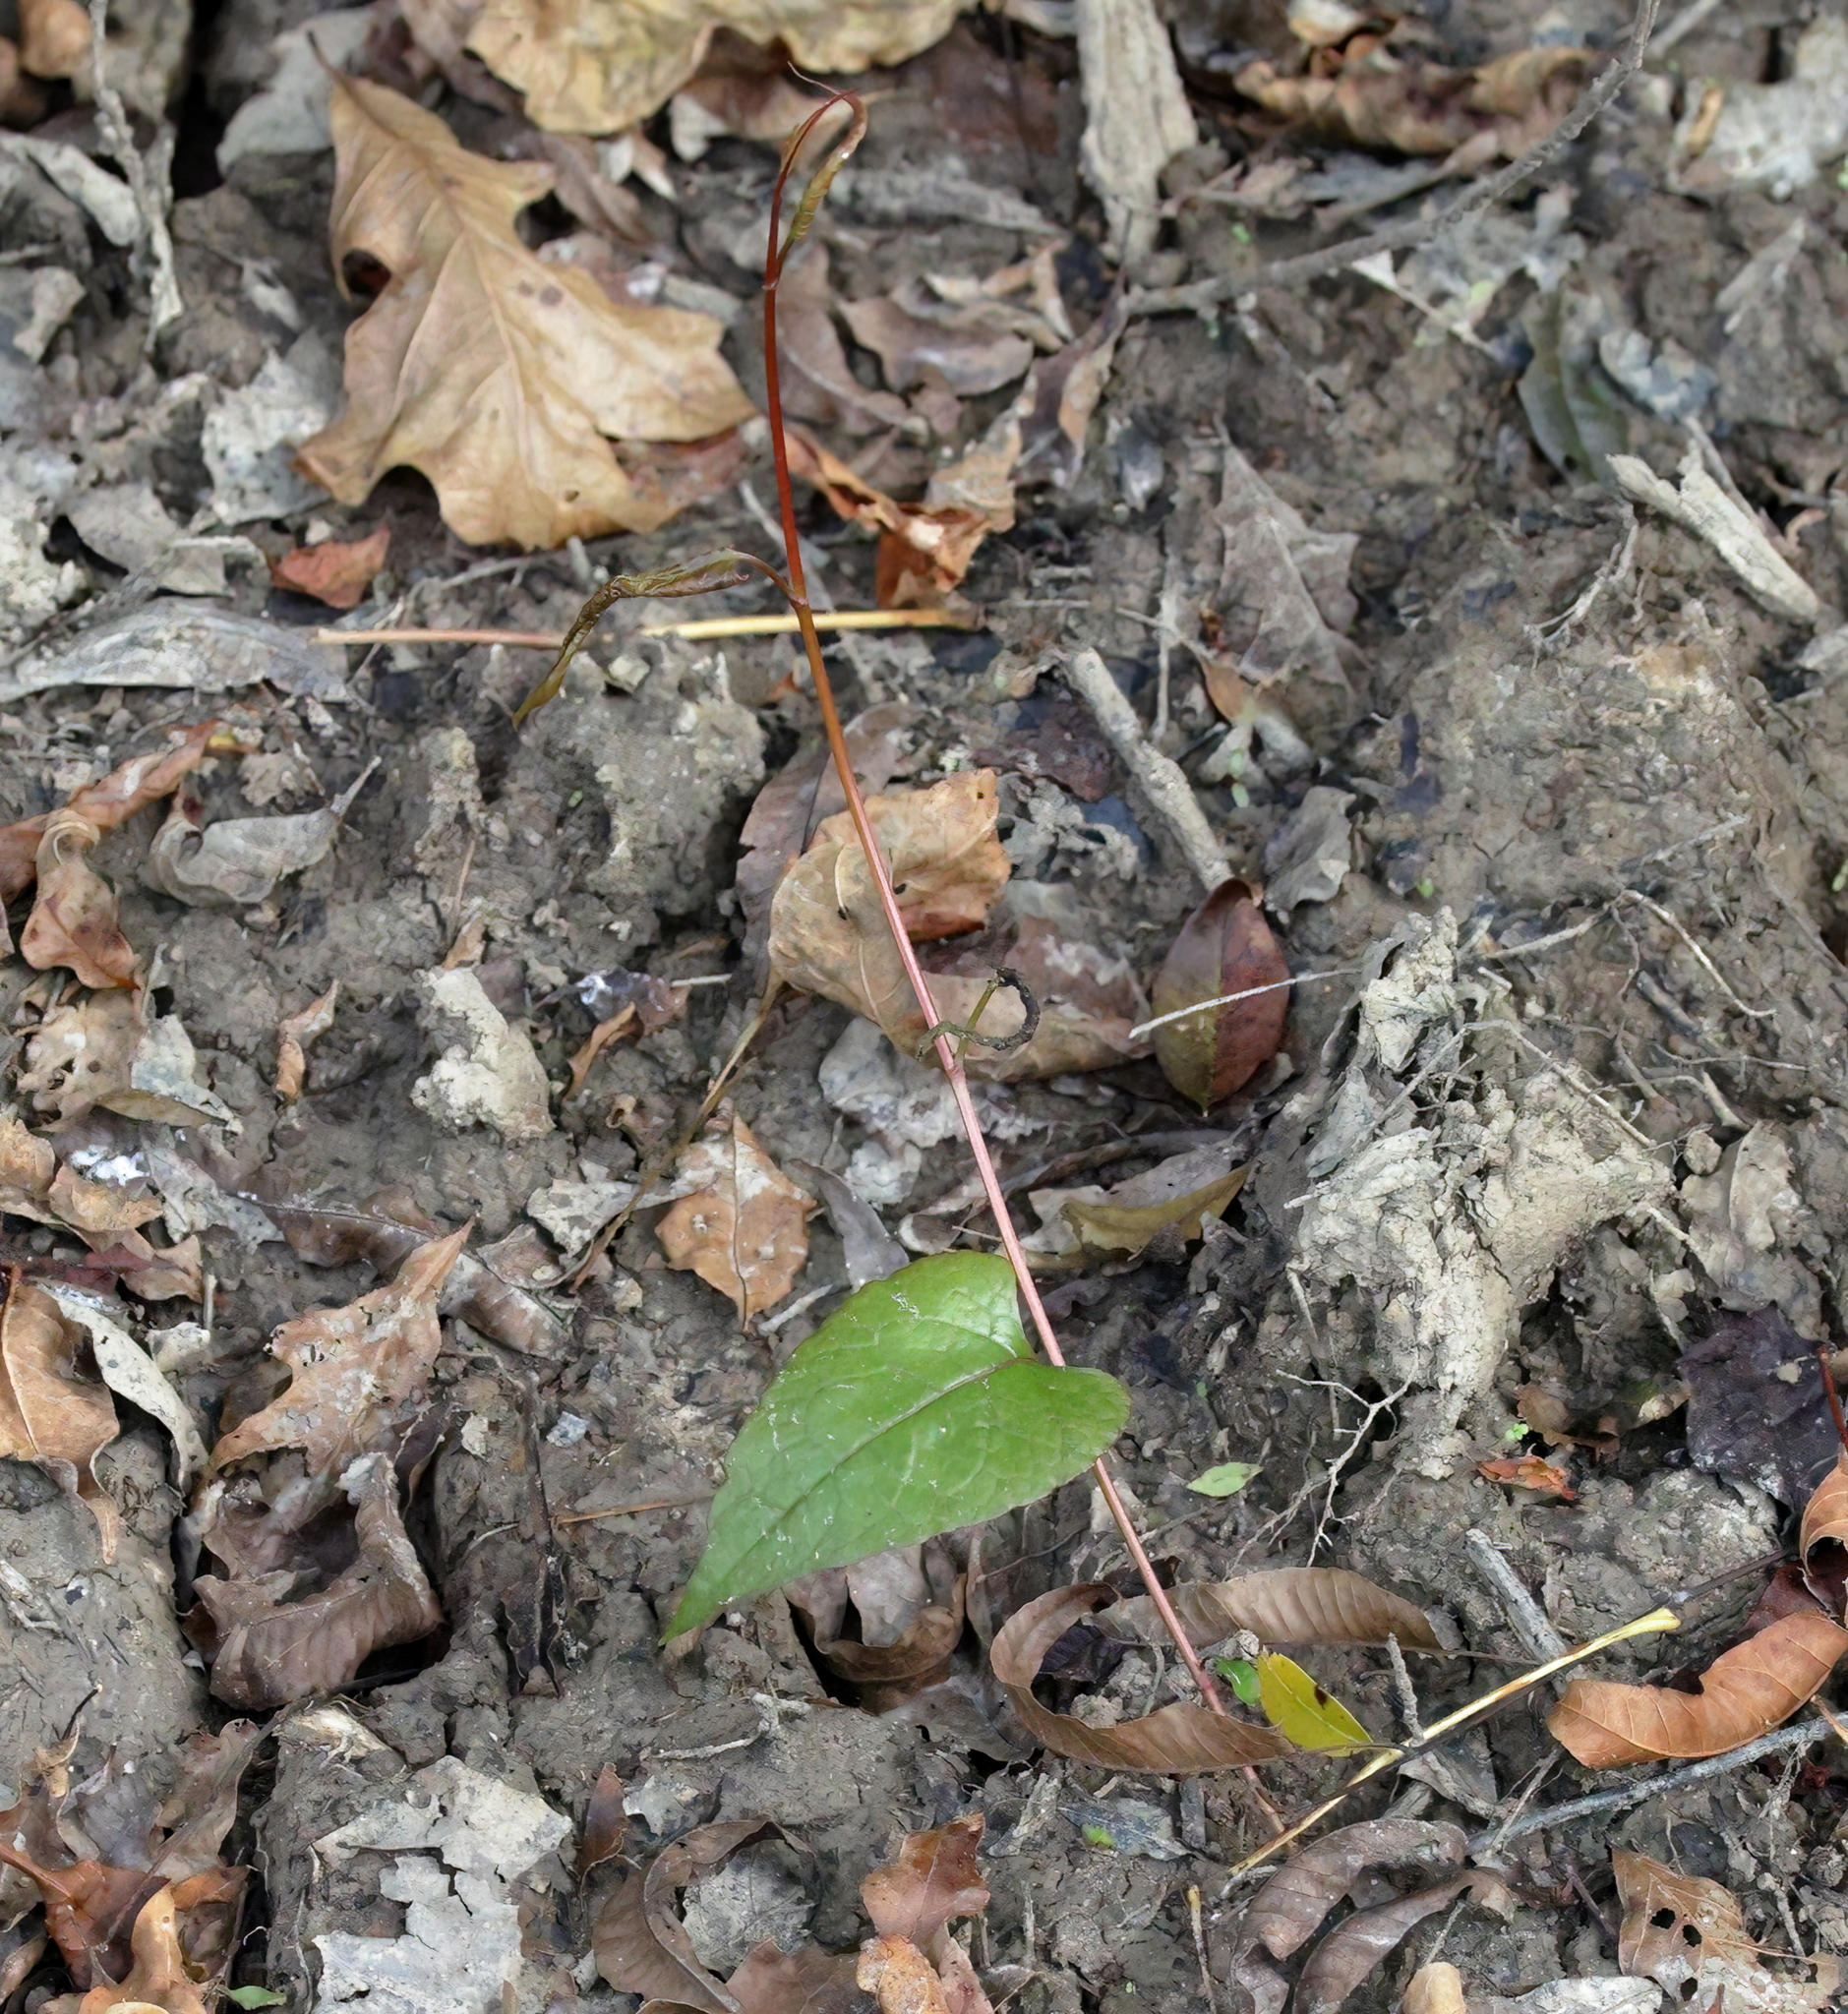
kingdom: Plantae
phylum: Tracheophyta
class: Magnoliopsida
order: Caryophyllales
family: Polygonaceae
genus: Brunnichia
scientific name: Brunnichia ovata
